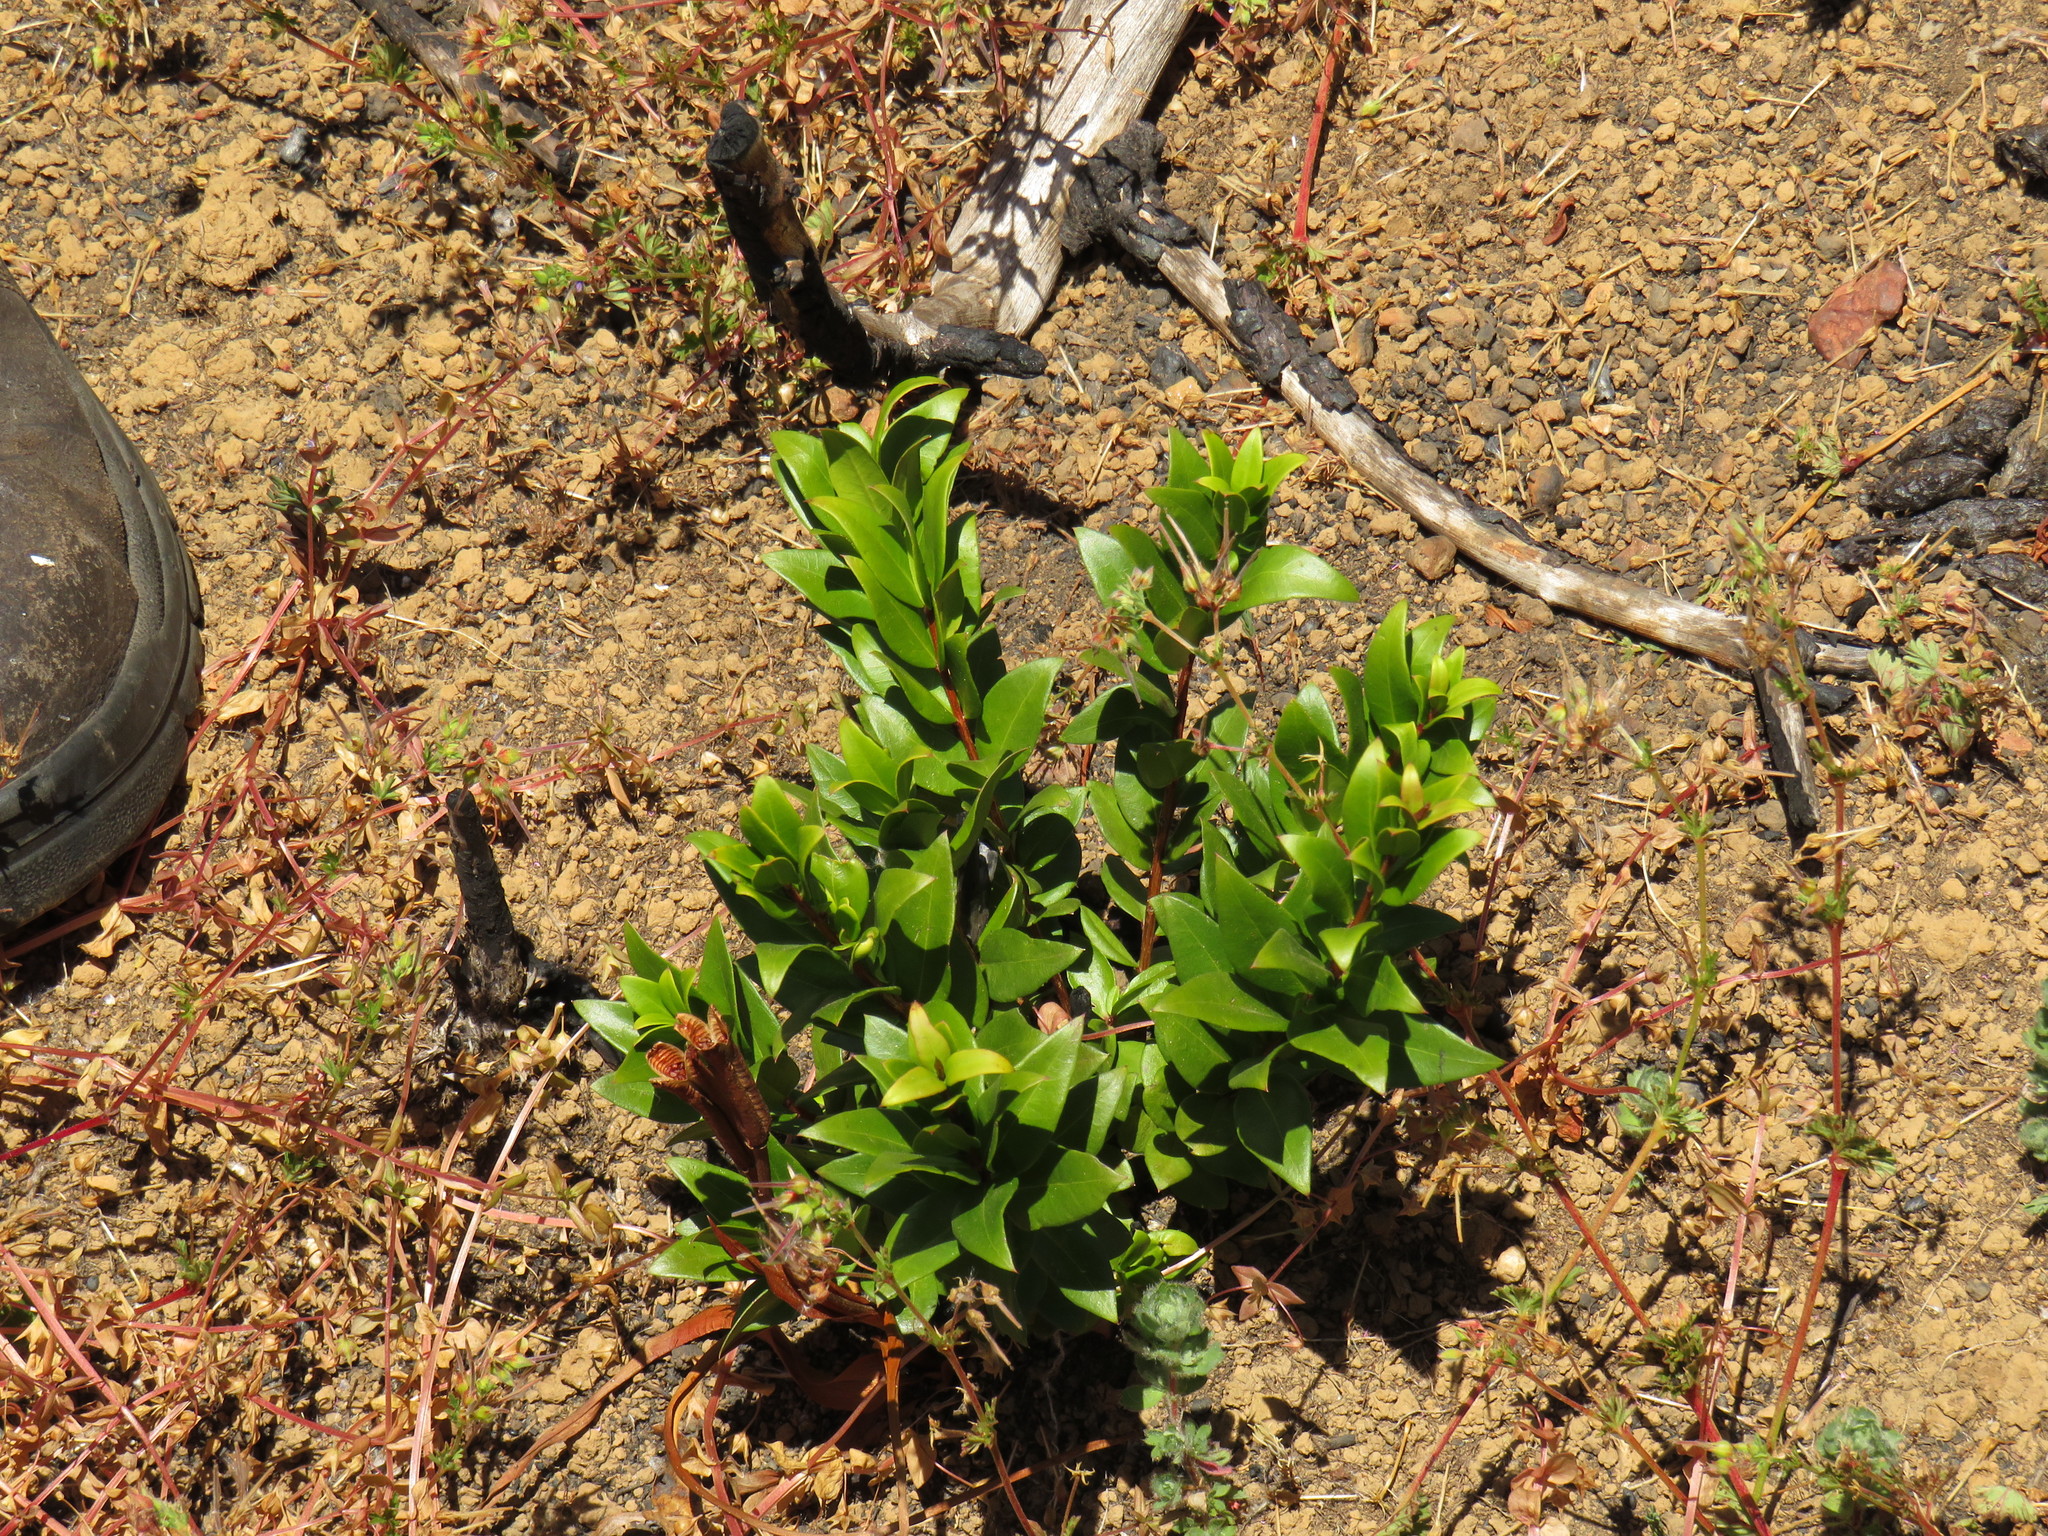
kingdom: Plantae
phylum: Tracheophyta
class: Magnoliopsida
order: Myrtales
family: Myrtaceae
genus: Myrtus
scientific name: Myrtus communis
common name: Myrtle
